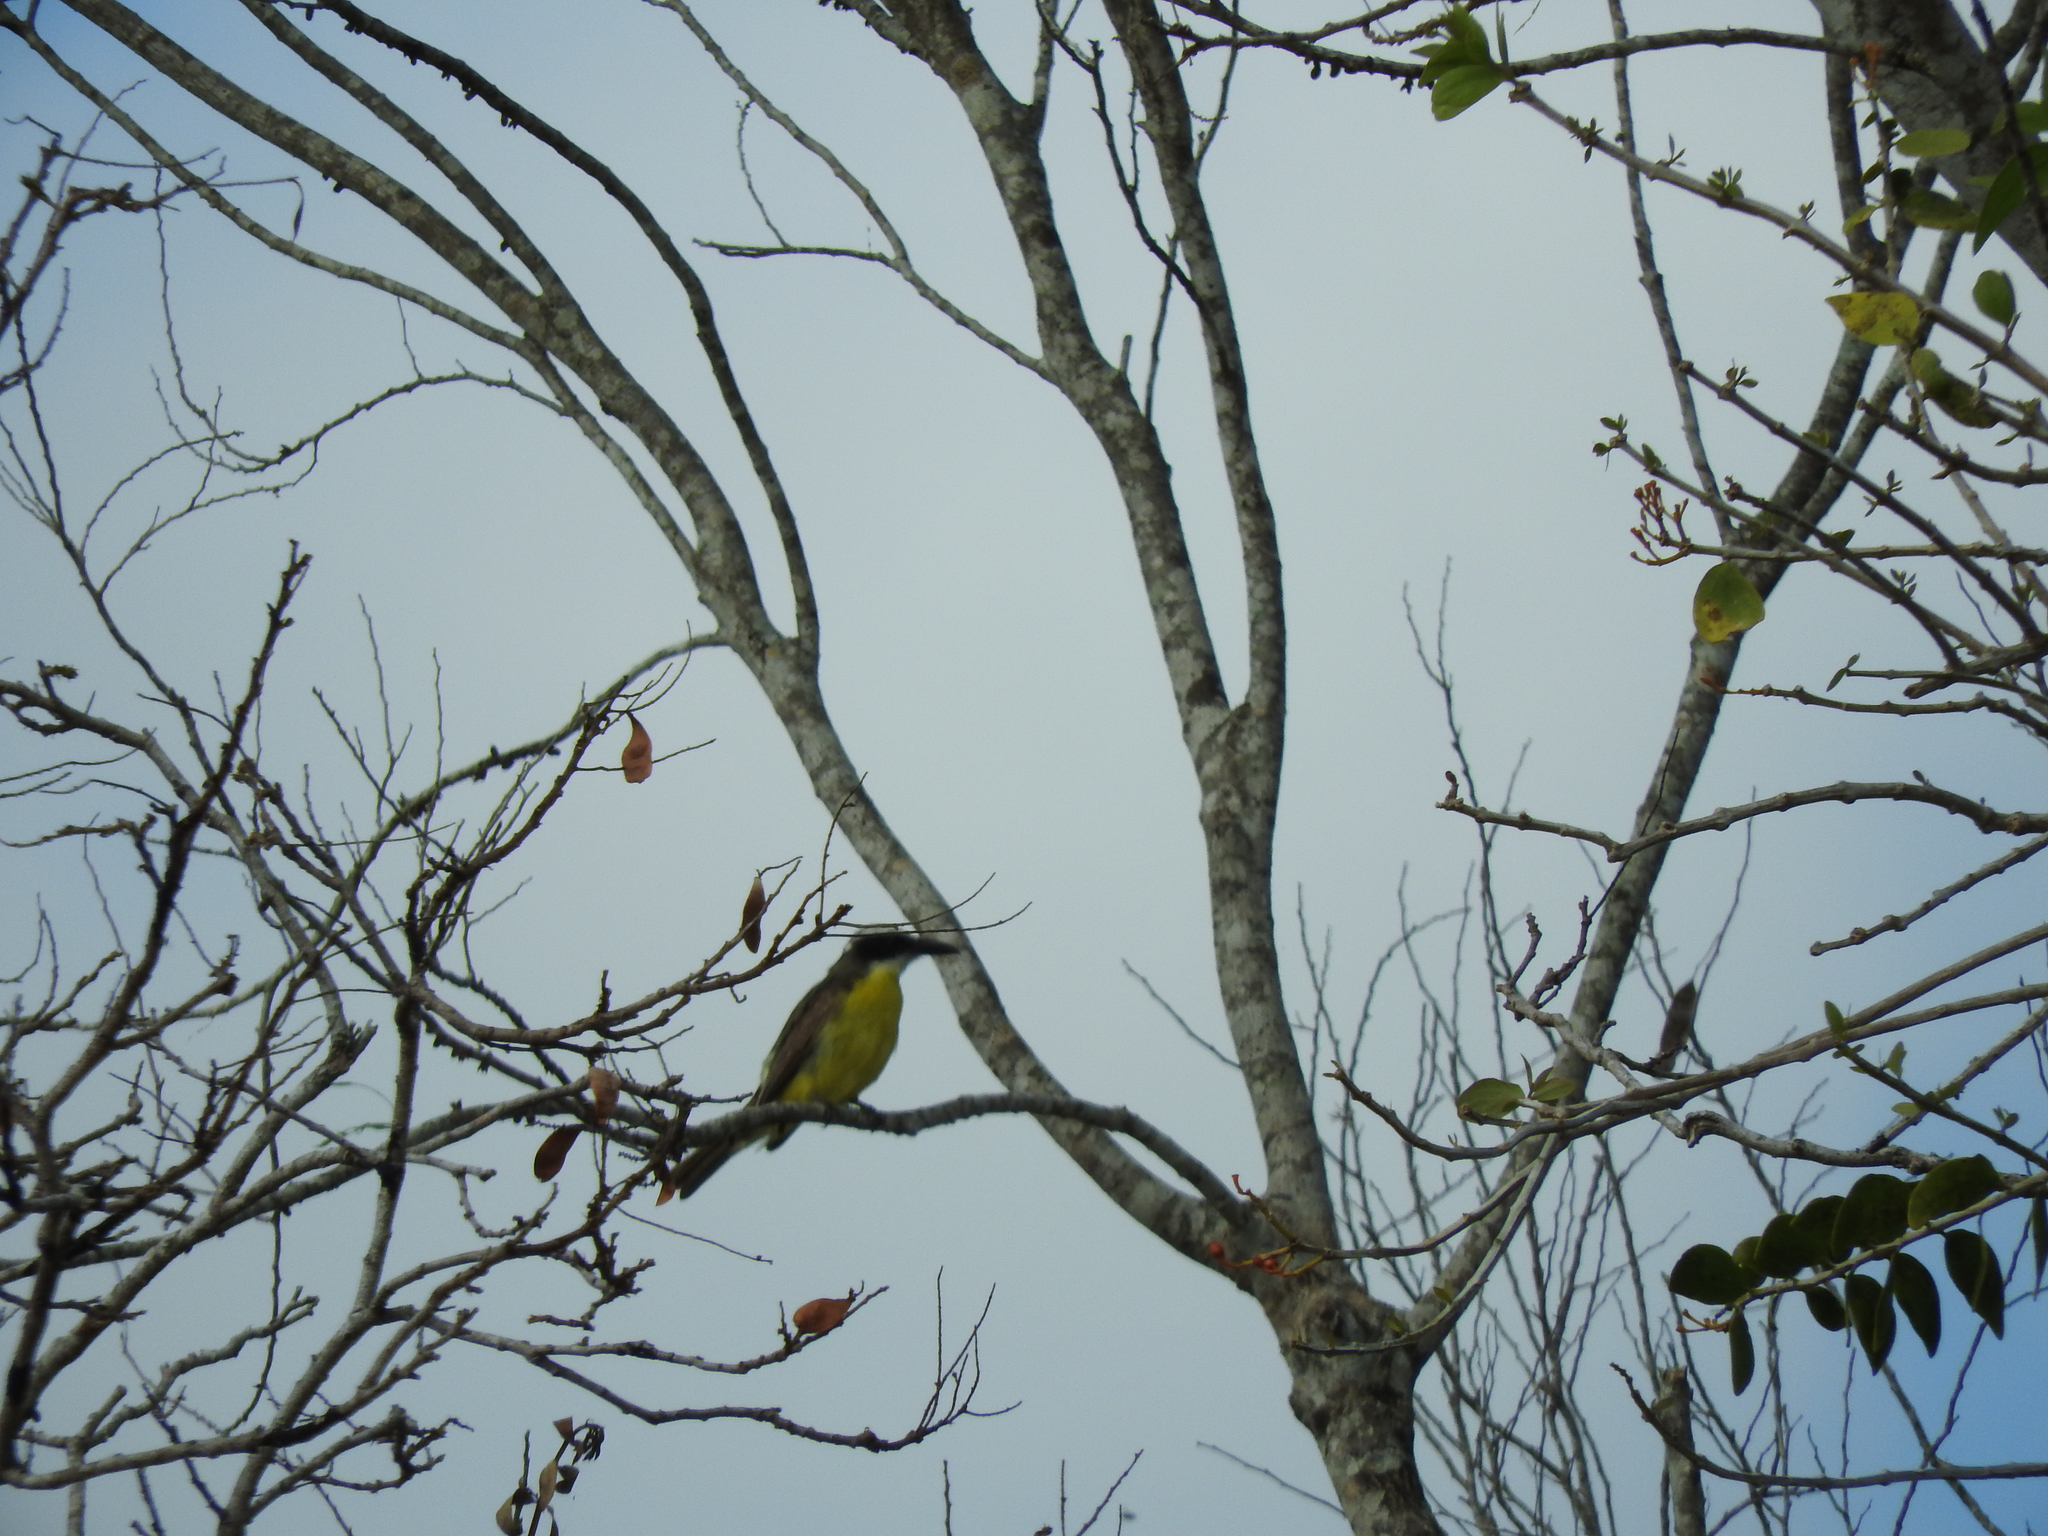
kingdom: Animalia
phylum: Chordata
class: Aves
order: Passeriformes
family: Tyrannidae
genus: Megarynchus
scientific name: Megarynchus pitangua
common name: Boat-billed flycatcher
